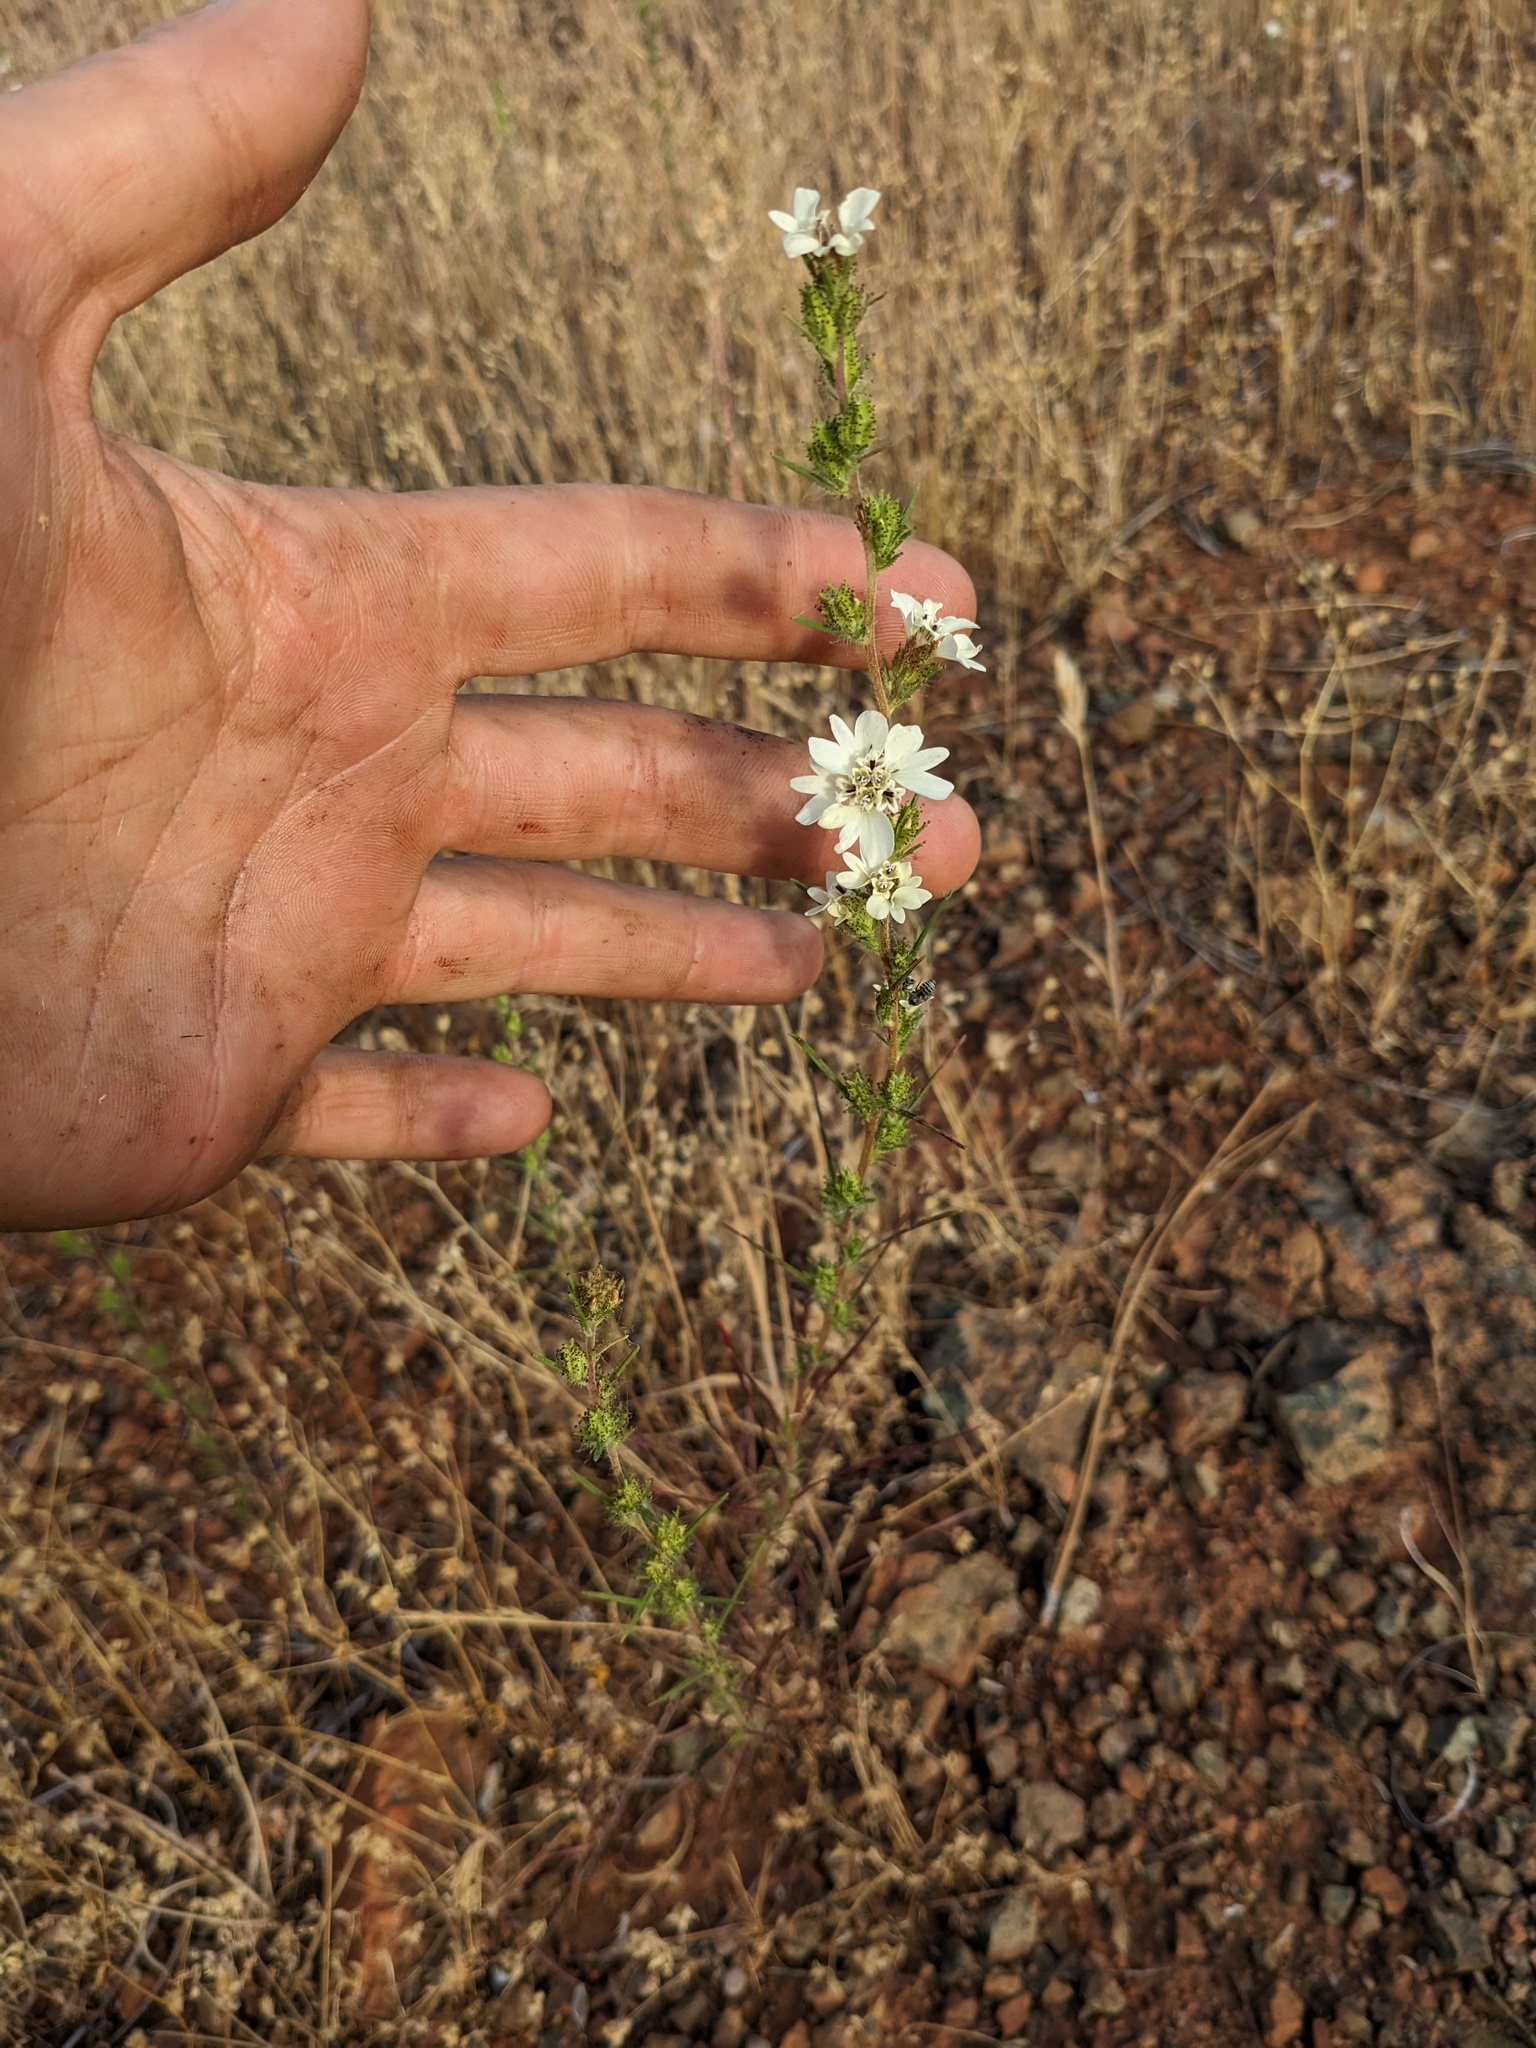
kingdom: Plantae
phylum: Tracheophyta
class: Magnoliopsida
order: Asterales
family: Asteraceae
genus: Calycadenia
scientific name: Calycadenia multiglandulosa
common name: Sticky calycadenia
